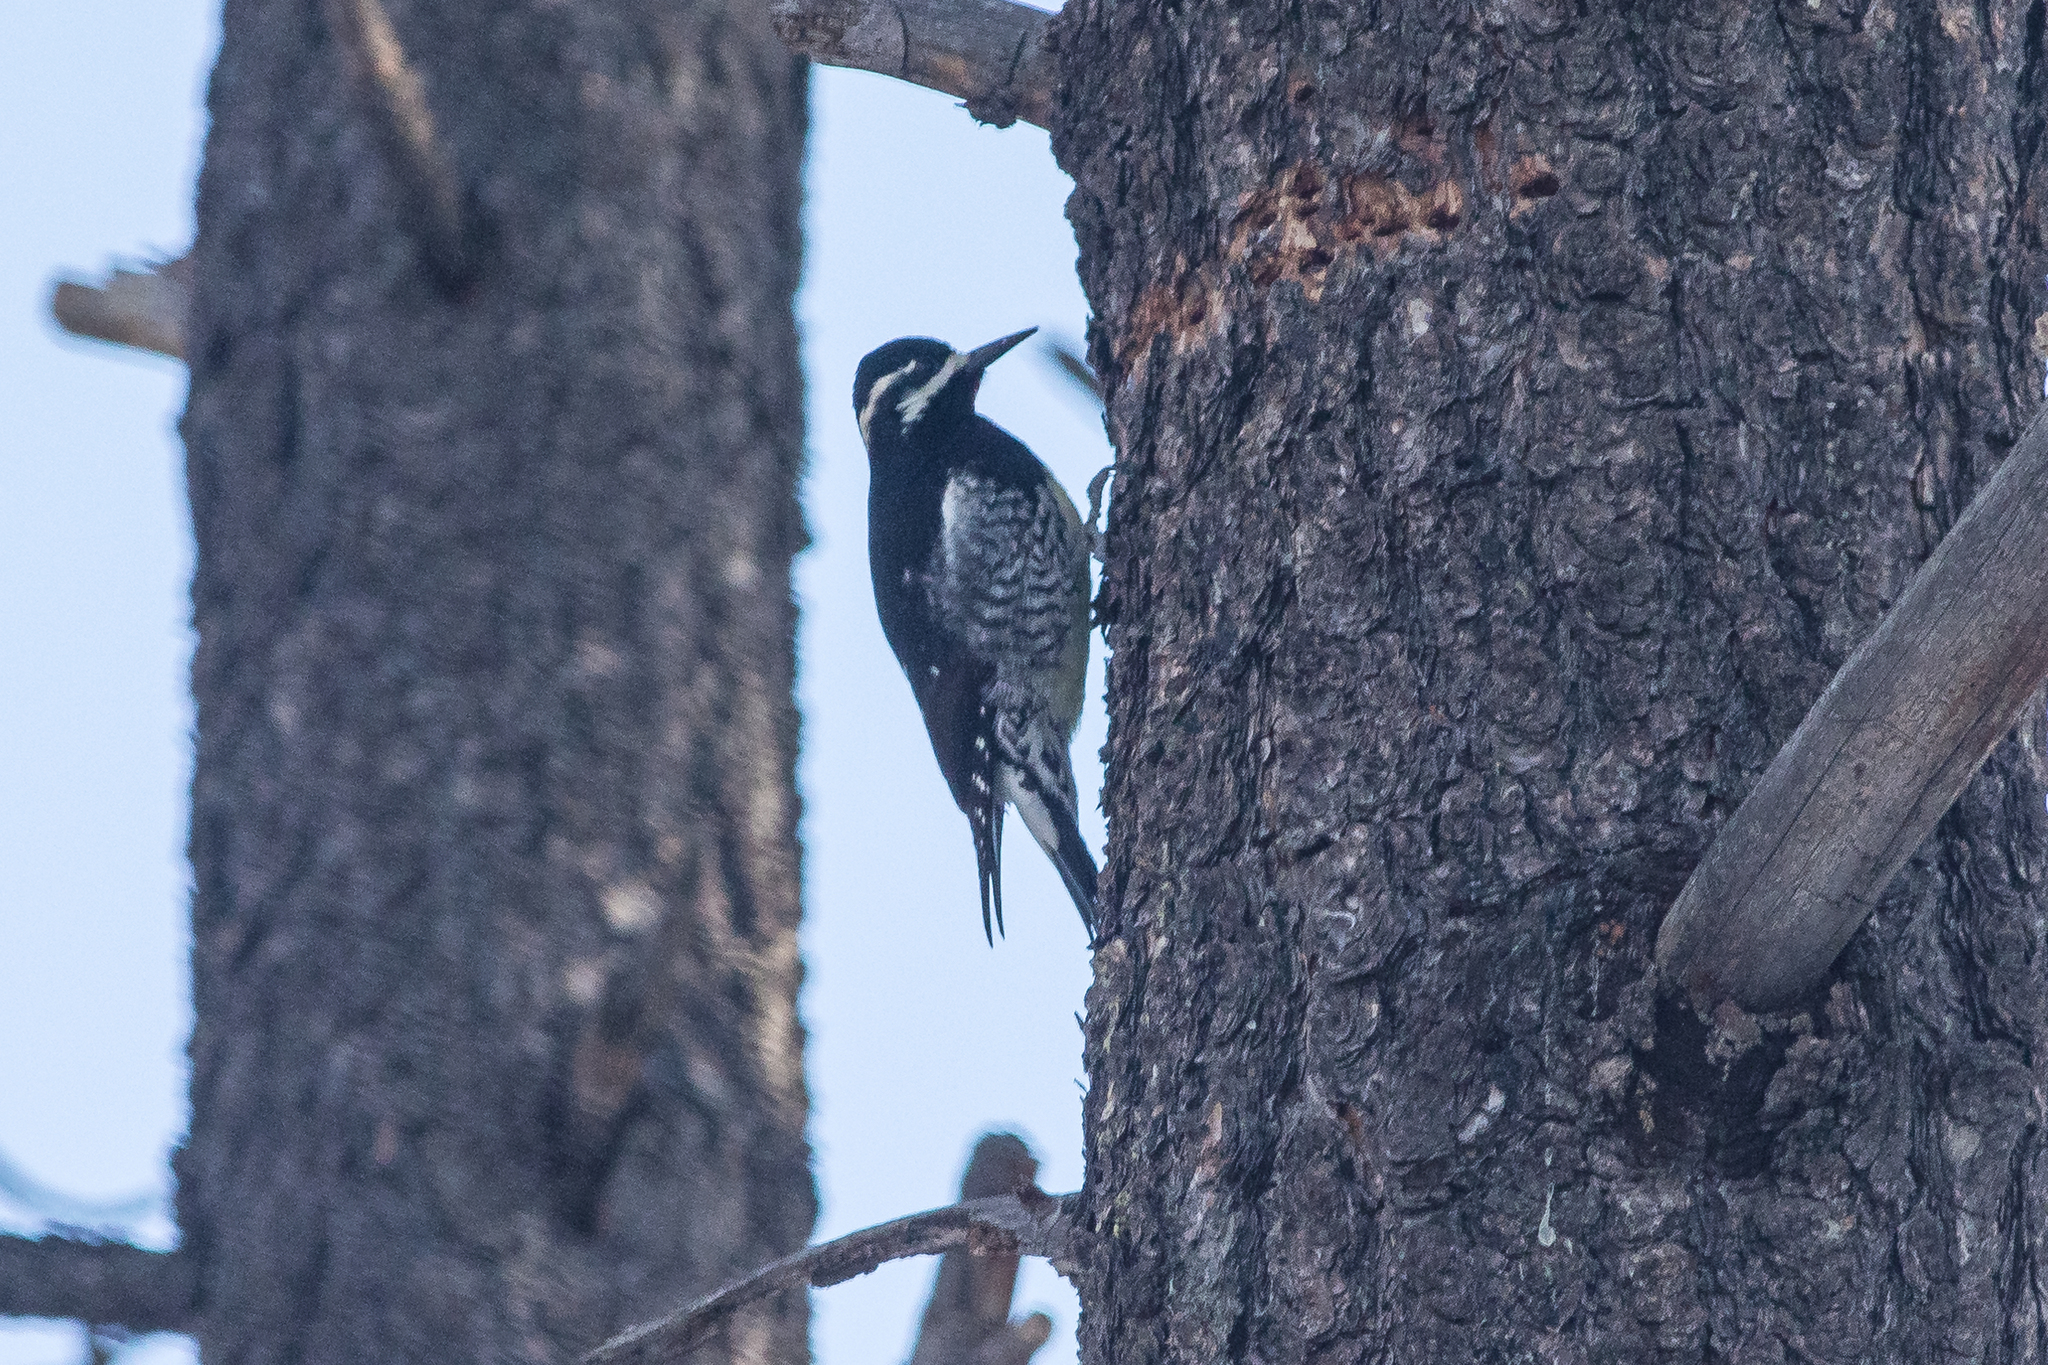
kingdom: Animalia
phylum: Chordata
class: Aves
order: Piciformes
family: Picidae
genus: Sphyrapicus
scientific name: Sphyrapicus thyroideus
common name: Williamson's sapsucker
